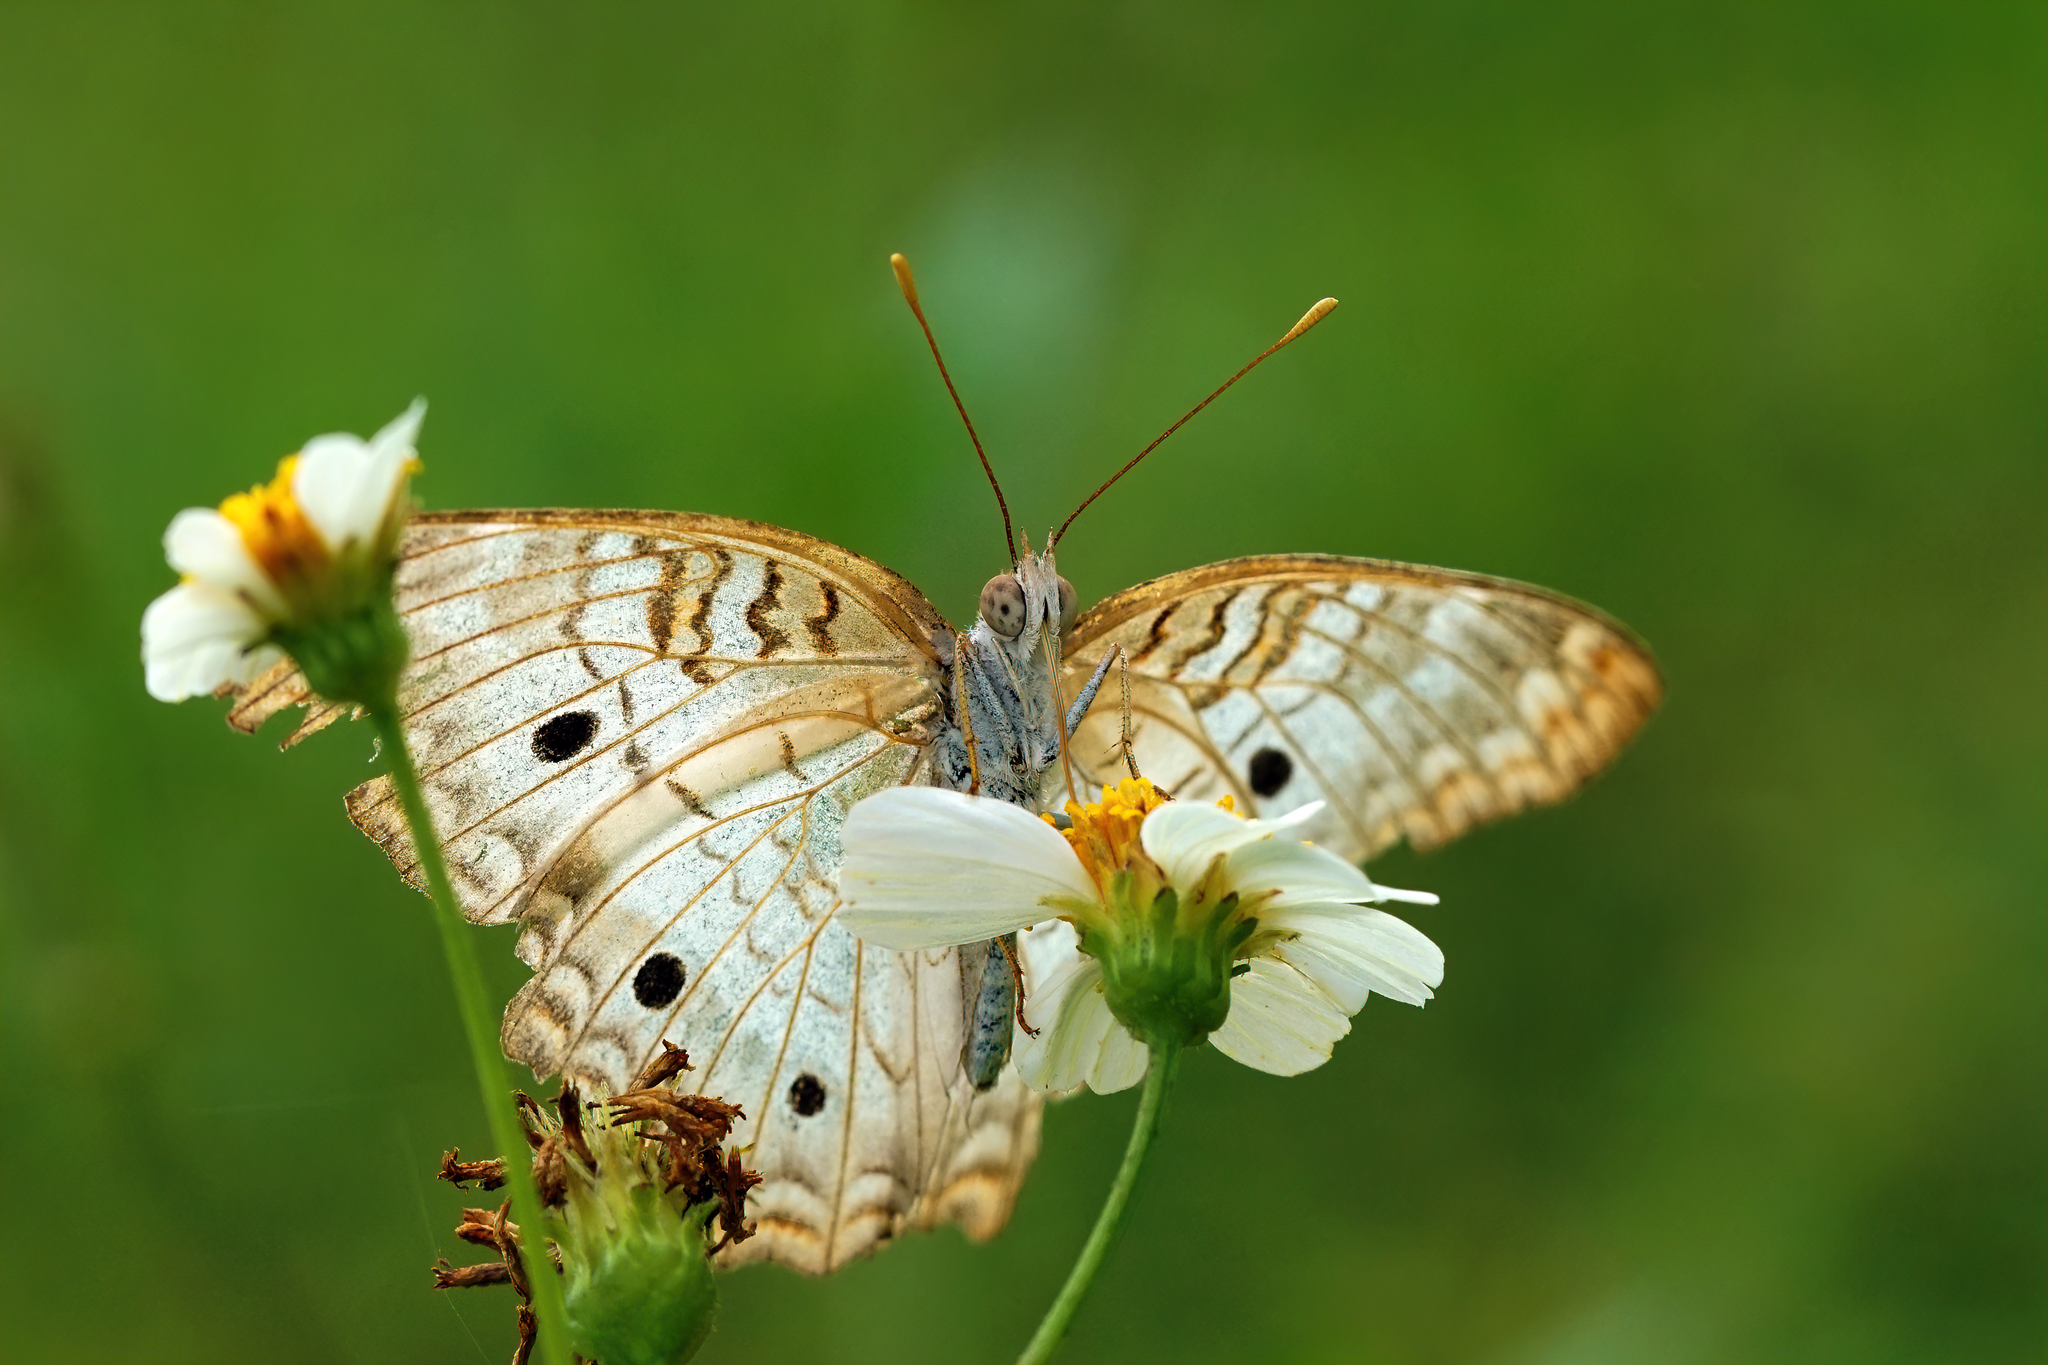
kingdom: Animalia
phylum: Arthropoda
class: Insecta
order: Lepidoptera
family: Nymphalidae
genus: Anartia
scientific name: Anartia jatrophae
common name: White peacock
